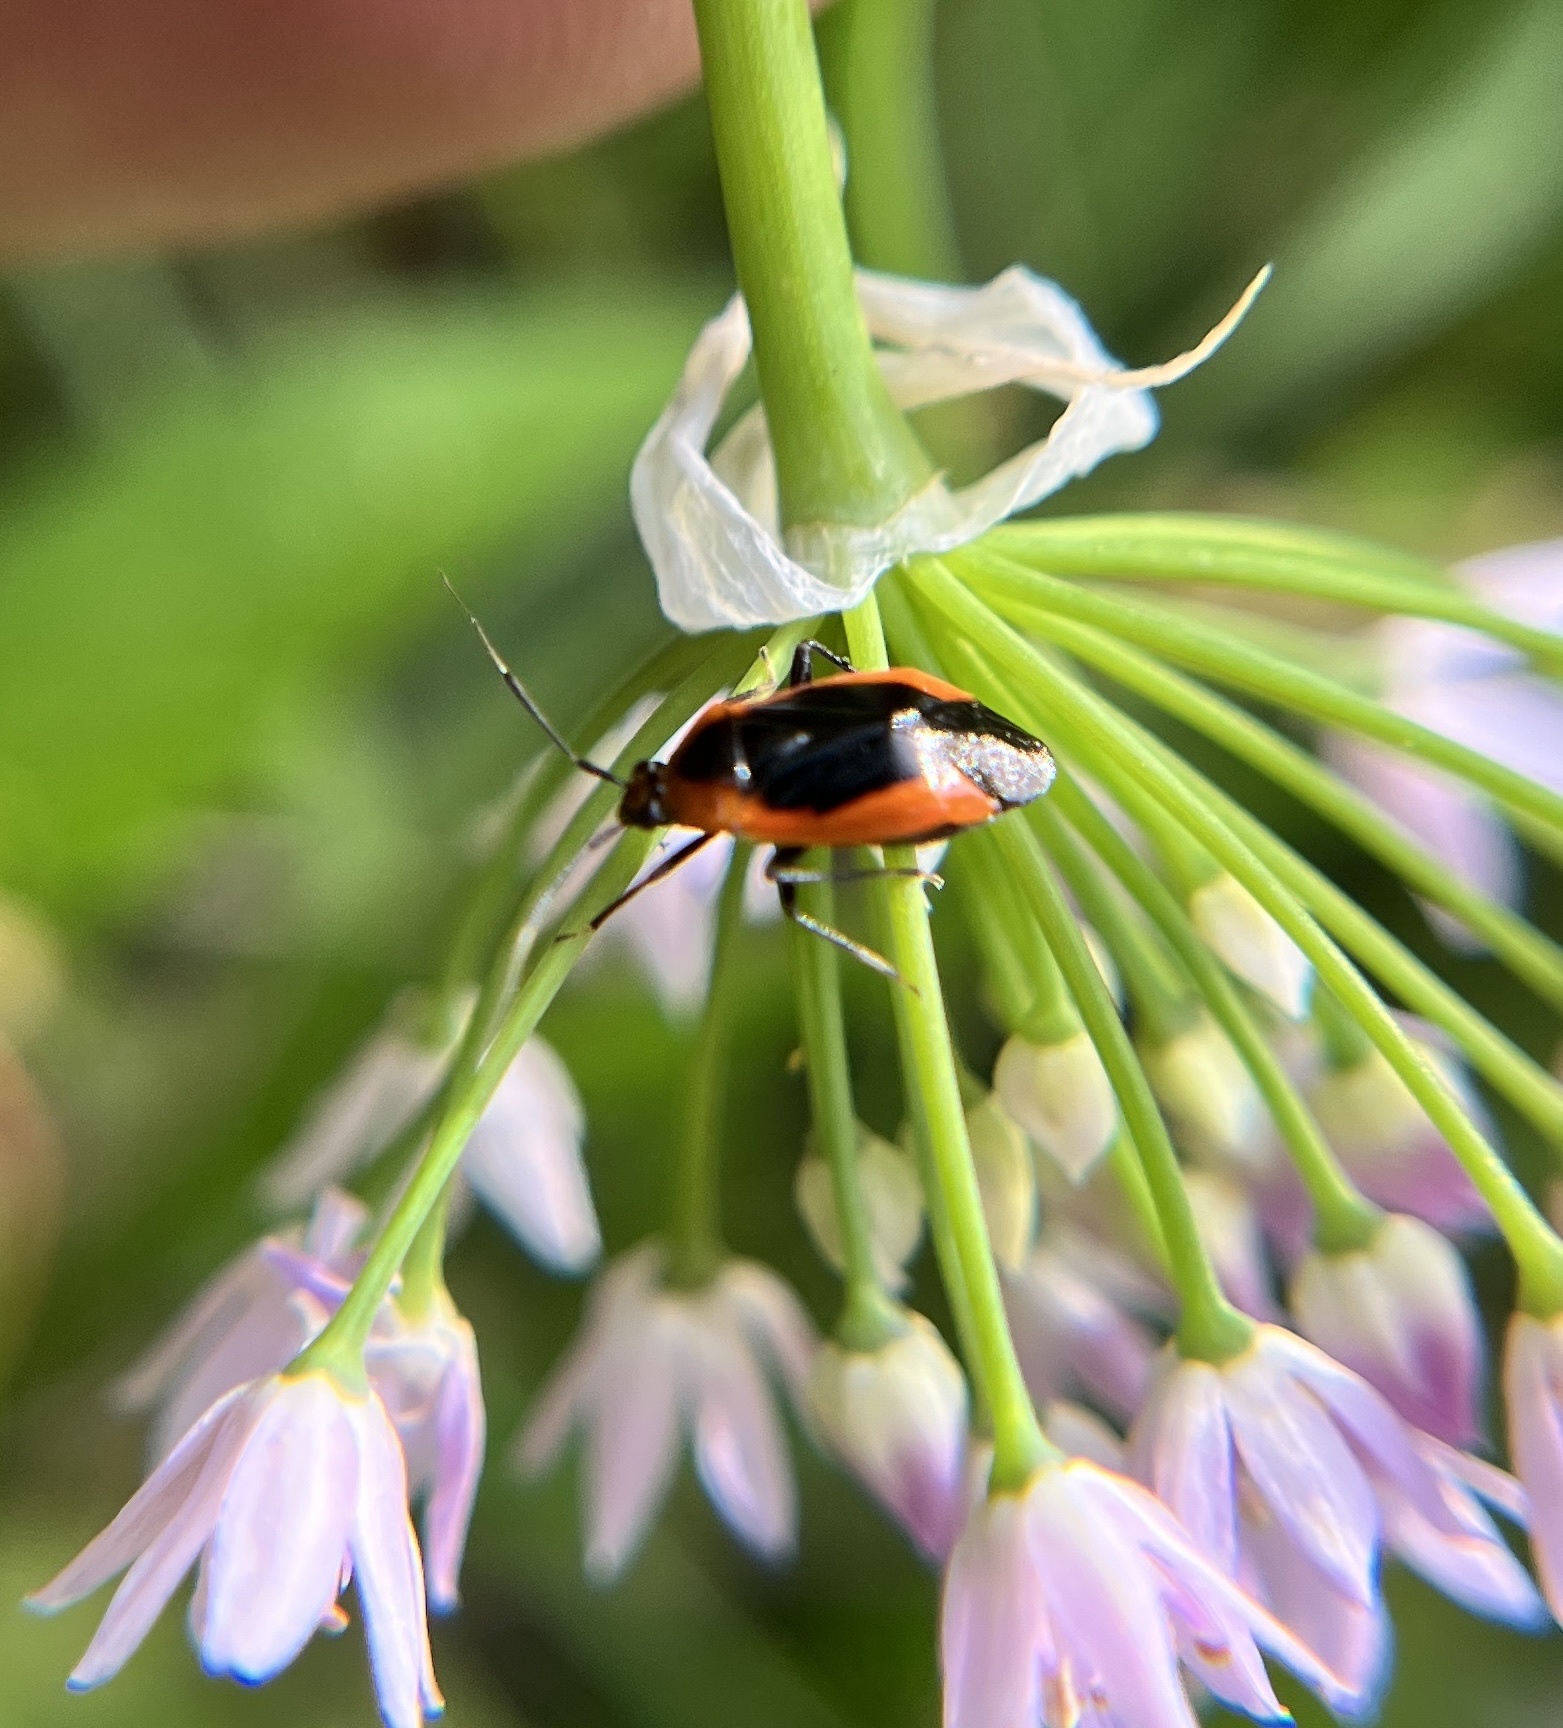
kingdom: Animalia
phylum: Arthropoda
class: Insecta
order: Hemiptera
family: Miridae
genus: Metriorrhynchomiris
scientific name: Metriorrhynchomiris dislocatus
